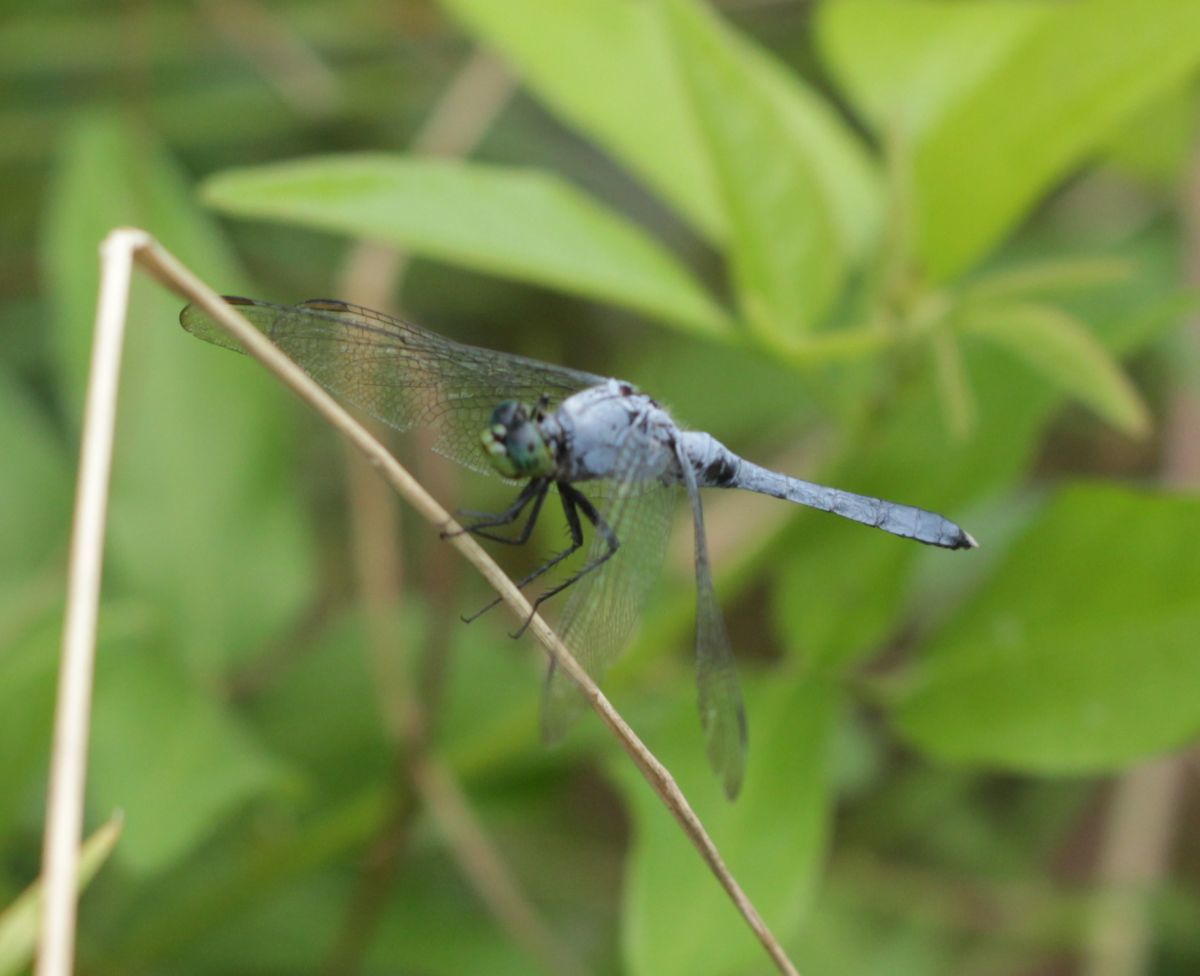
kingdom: Animalia
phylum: Arthropoda
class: Insecta
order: Odonata
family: Libellulidae
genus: Erythemis
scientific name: Erythemis simplicicollis
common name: Eastern pondhawk
